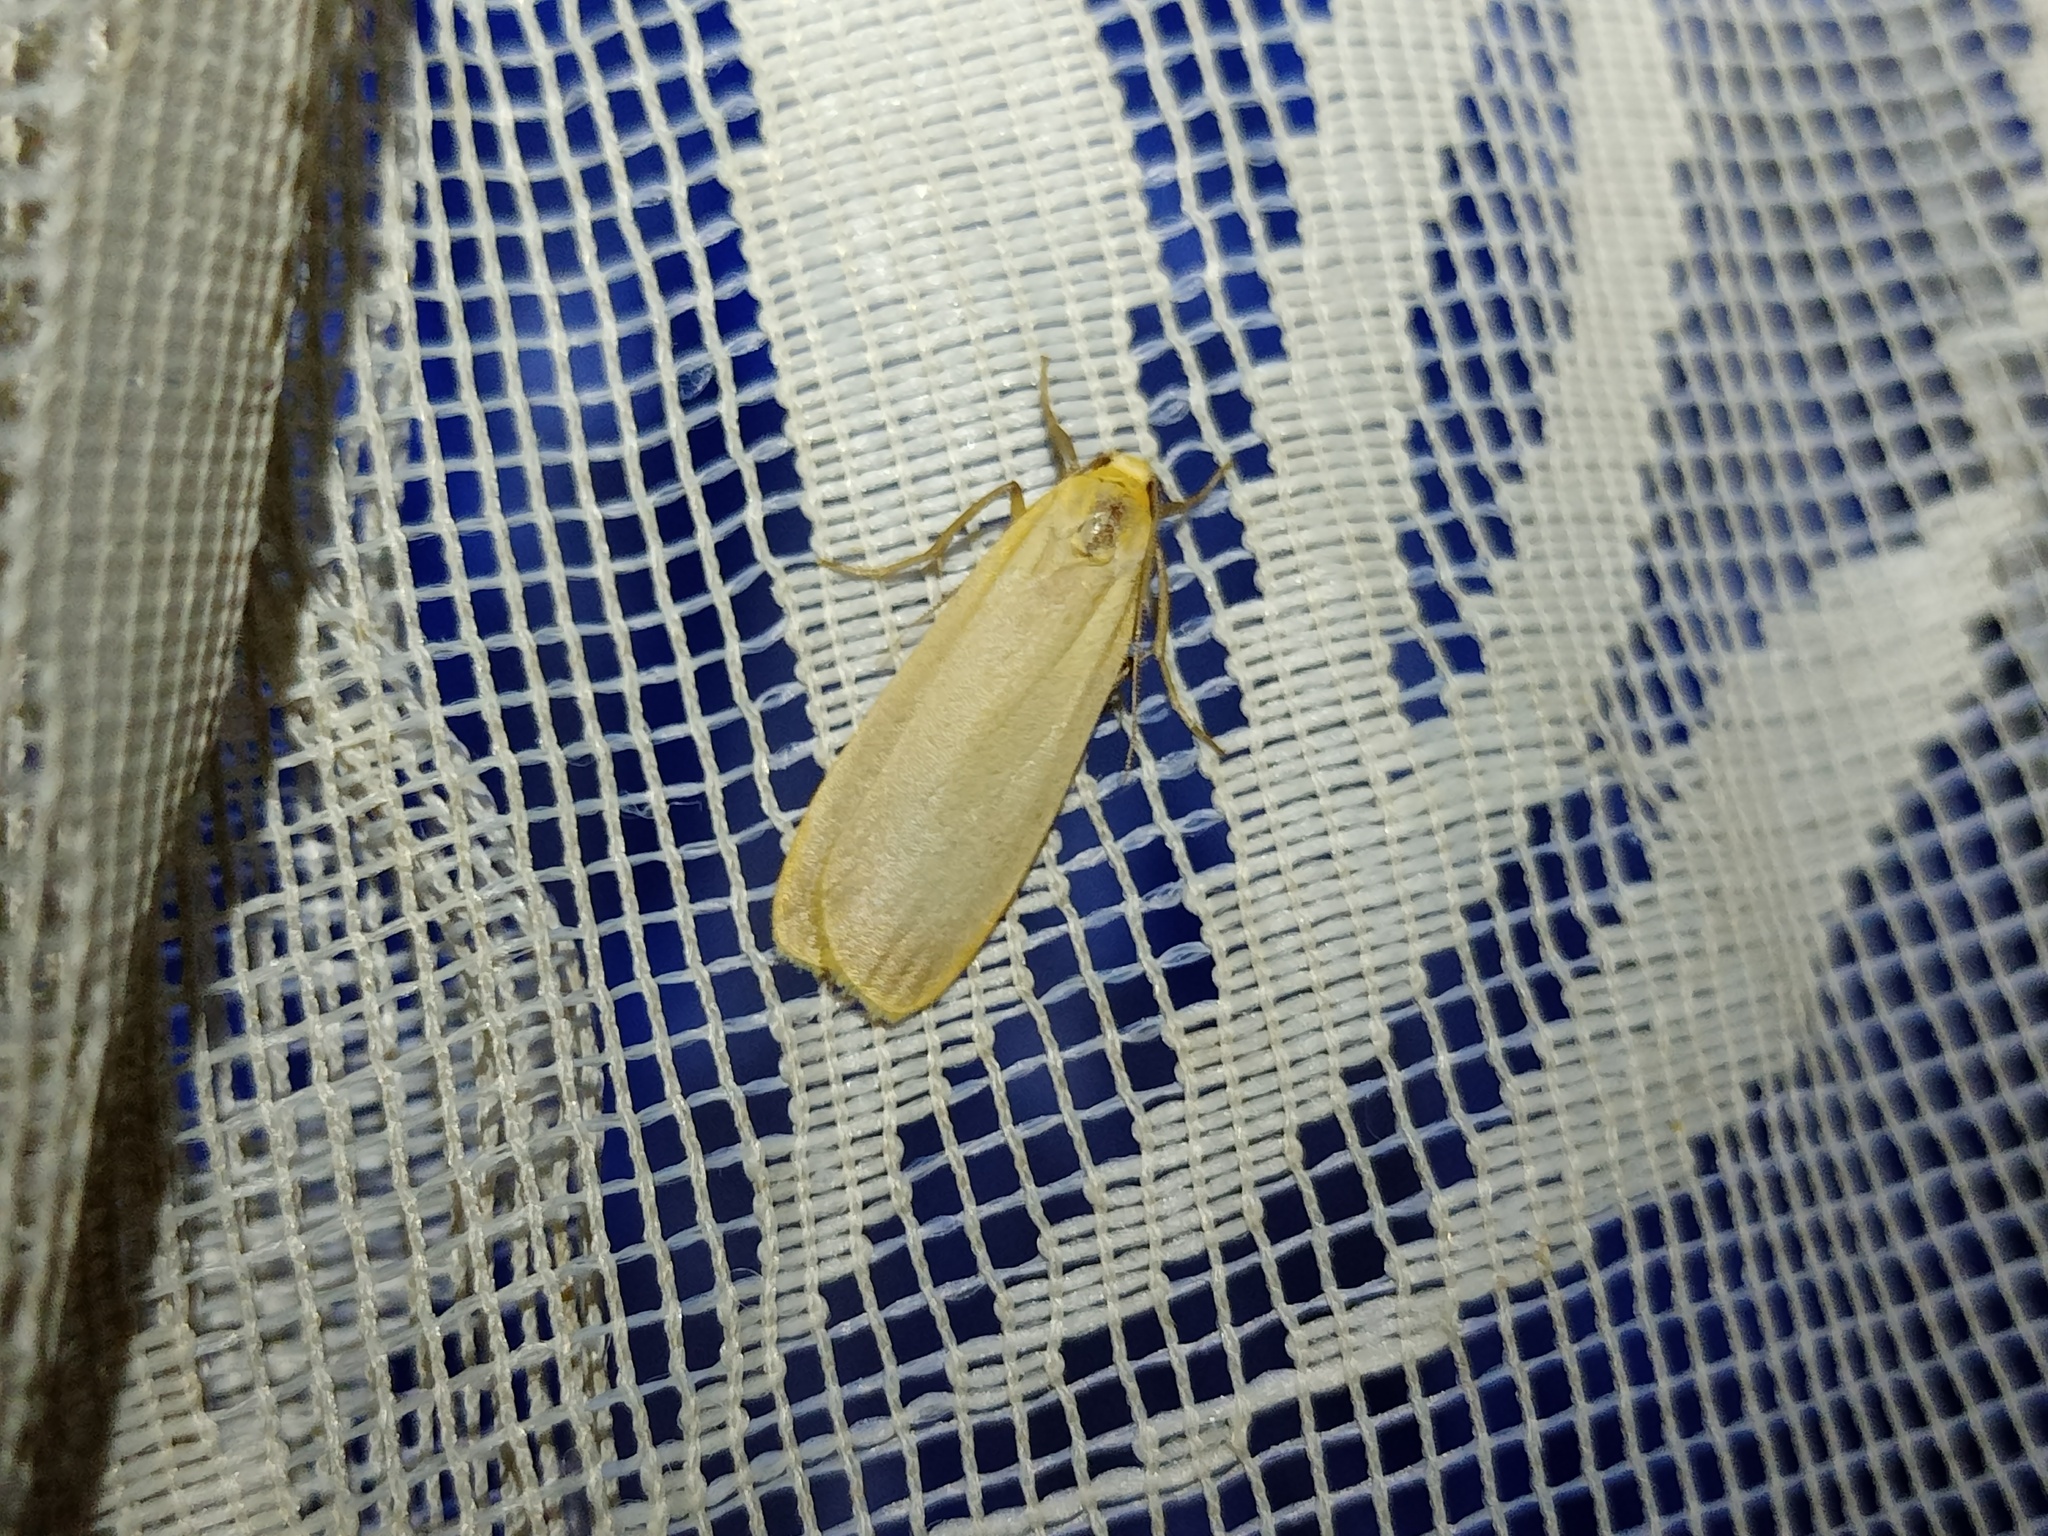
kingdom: Animalia
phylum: Arthropoda
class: Insecta
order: Lepidoptera
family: Erebidae
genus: Katha
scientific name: Katha depressa
